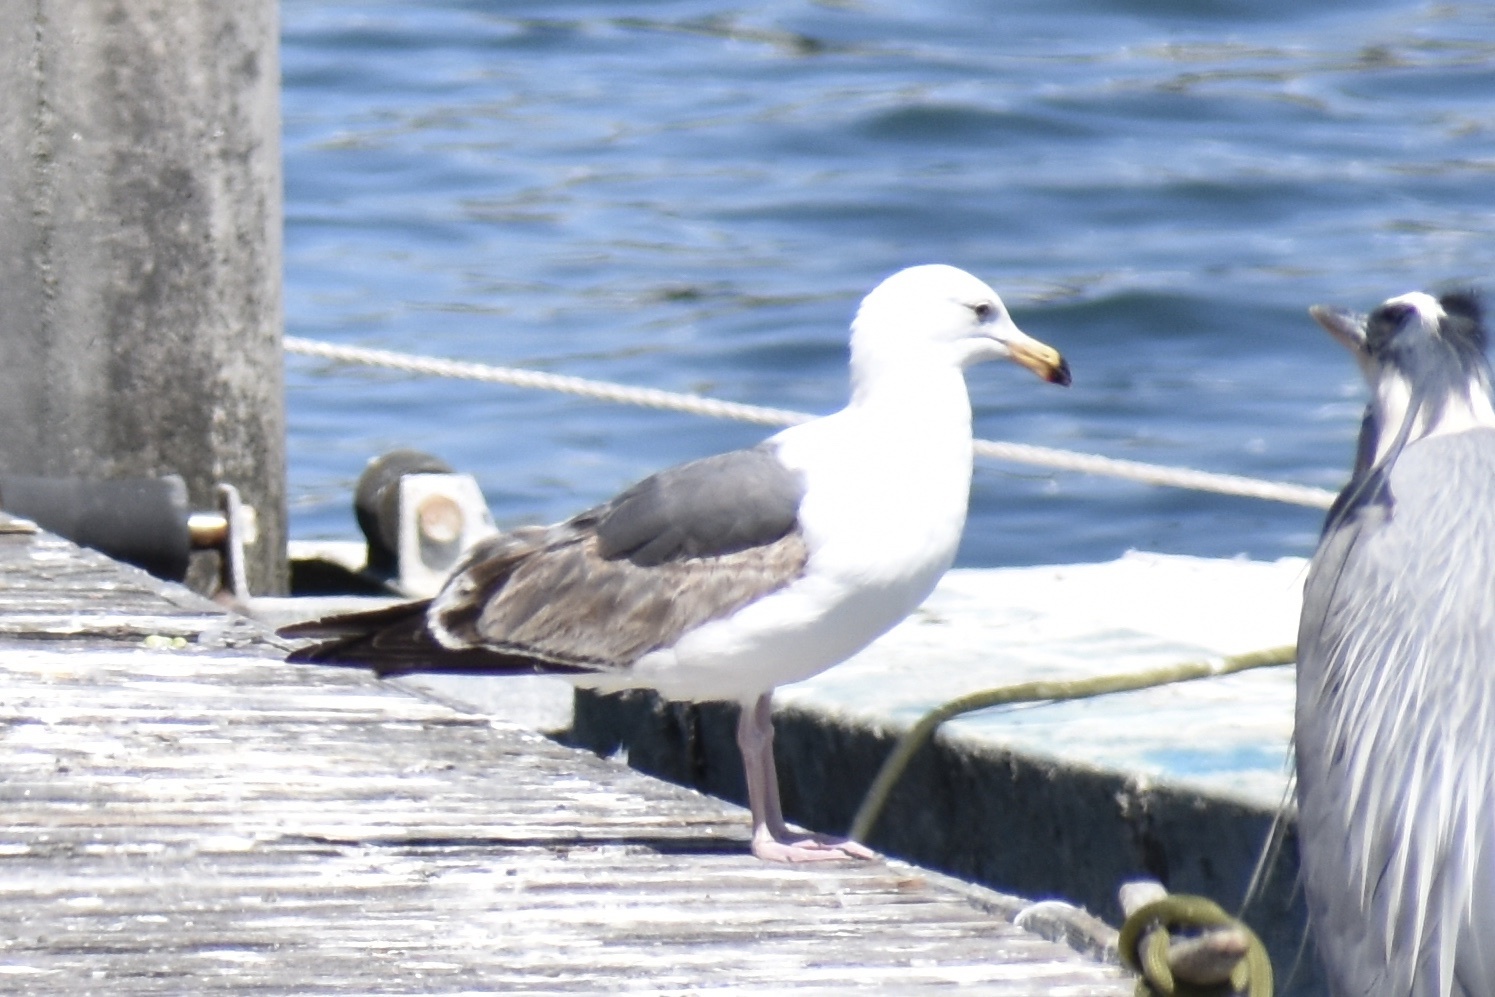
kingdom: Animalia
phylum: Chordata
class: Aves
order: Charadriiformes
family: Laridae
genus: Larus
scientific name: Larus occidentalis
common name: Western gull
